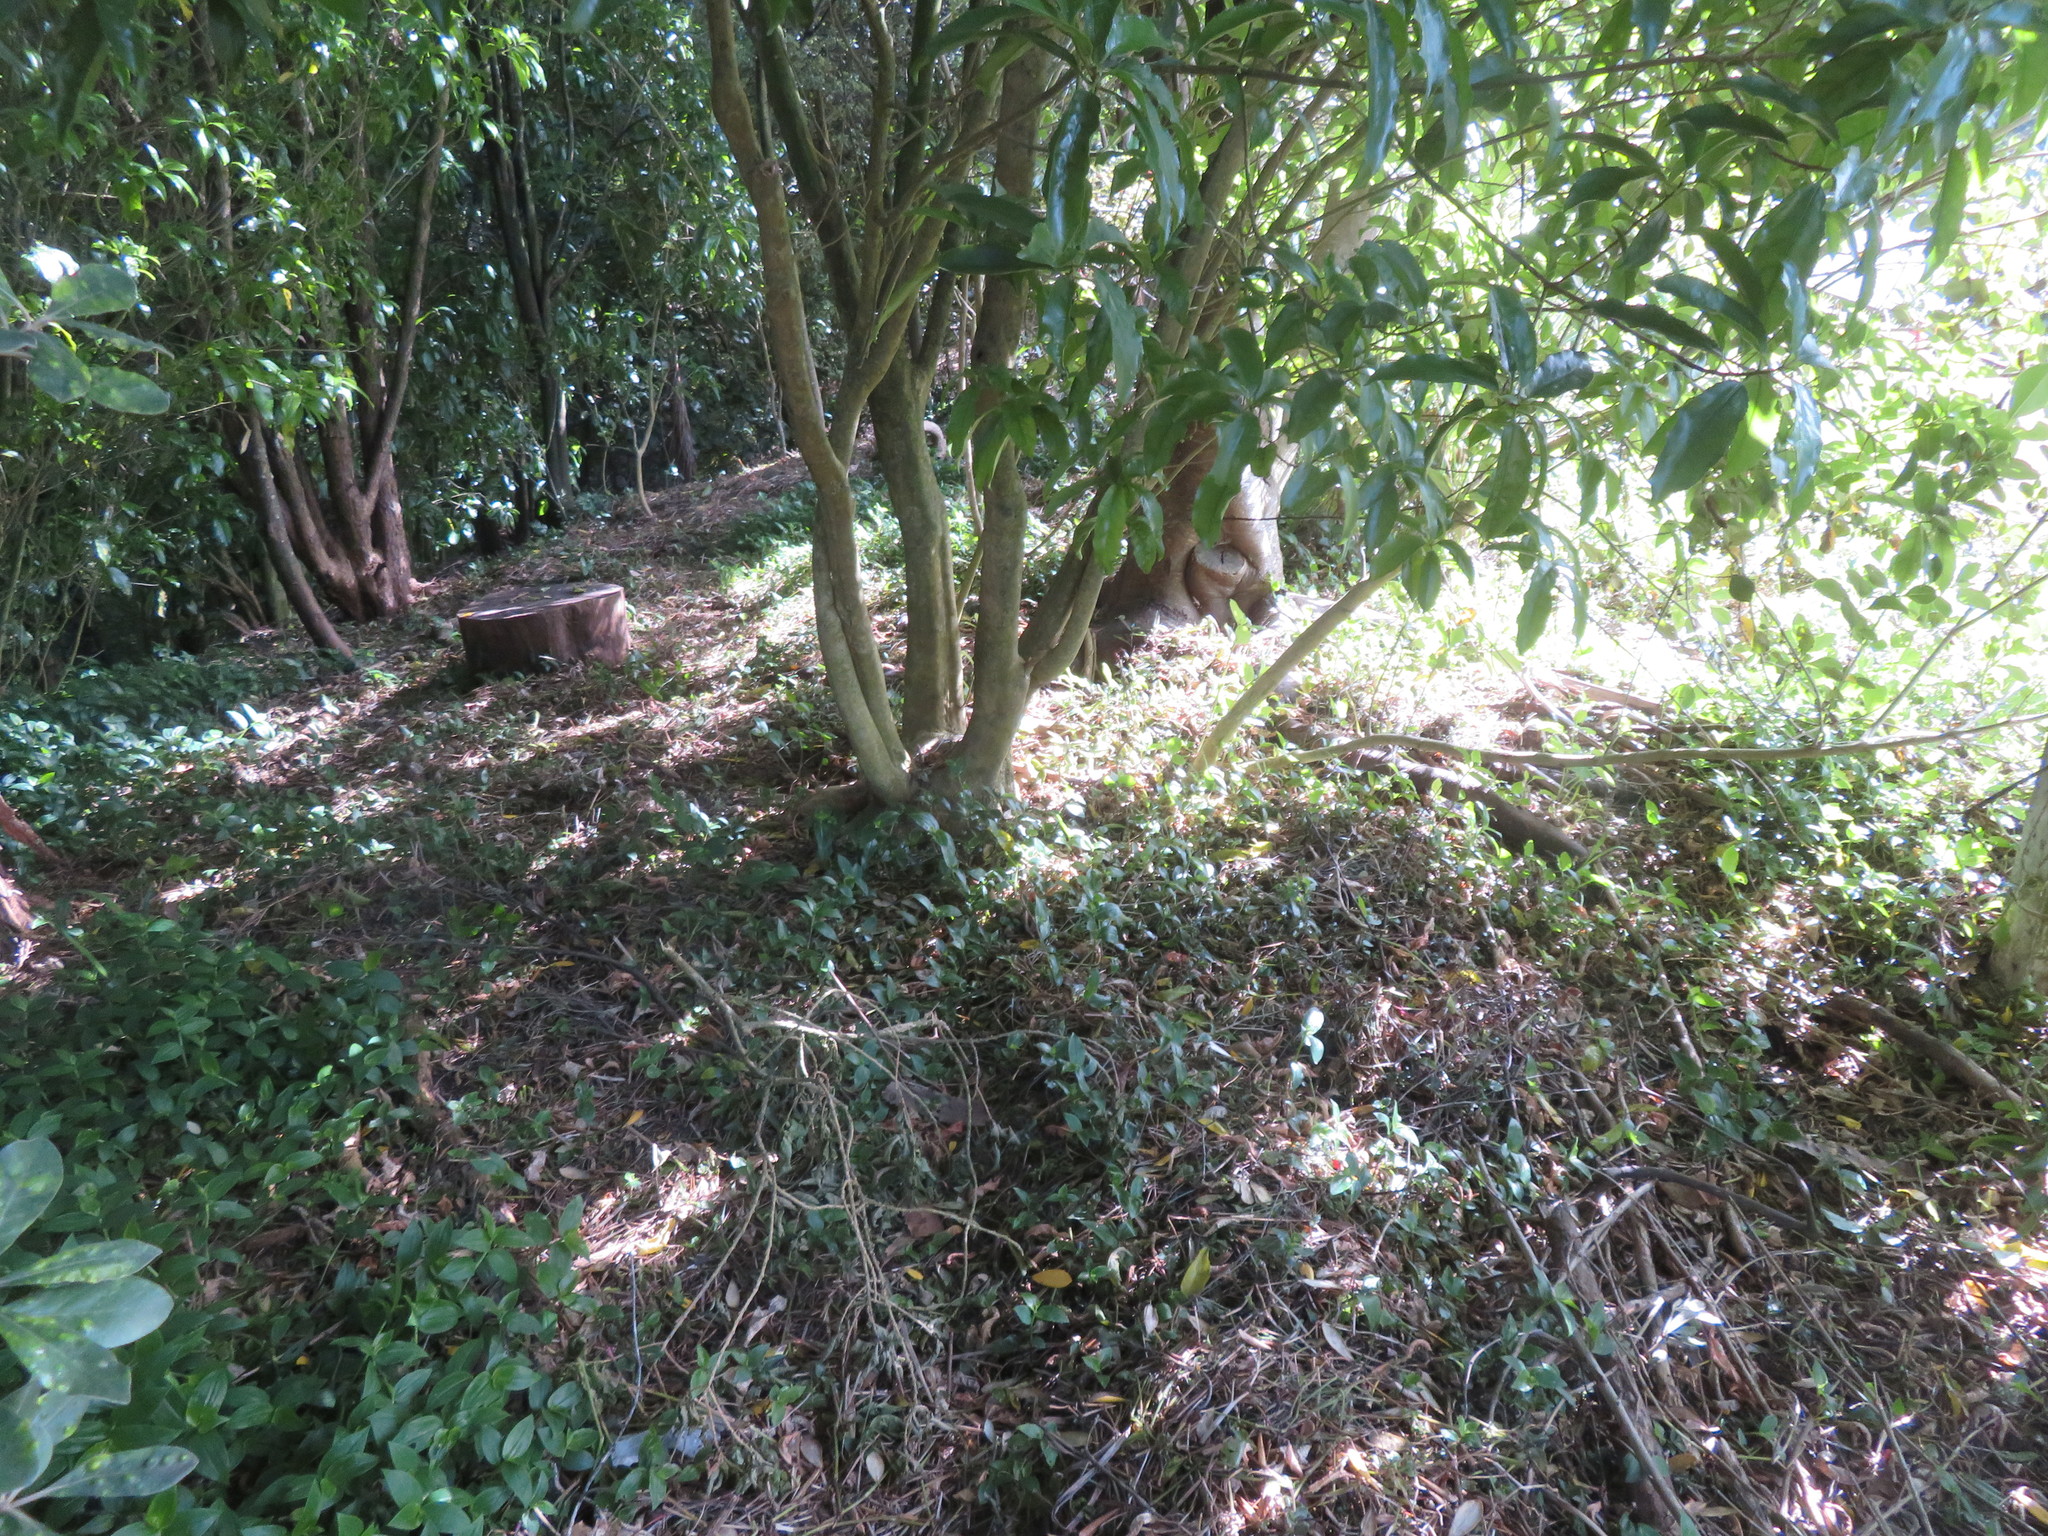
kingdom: Plantae
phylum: Tracheophyta
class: Liliopsida
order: Commelinales
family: Commelinaceae
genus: Tradescantia
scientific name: Tradescantia fluminensis
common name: Wandering-jew
